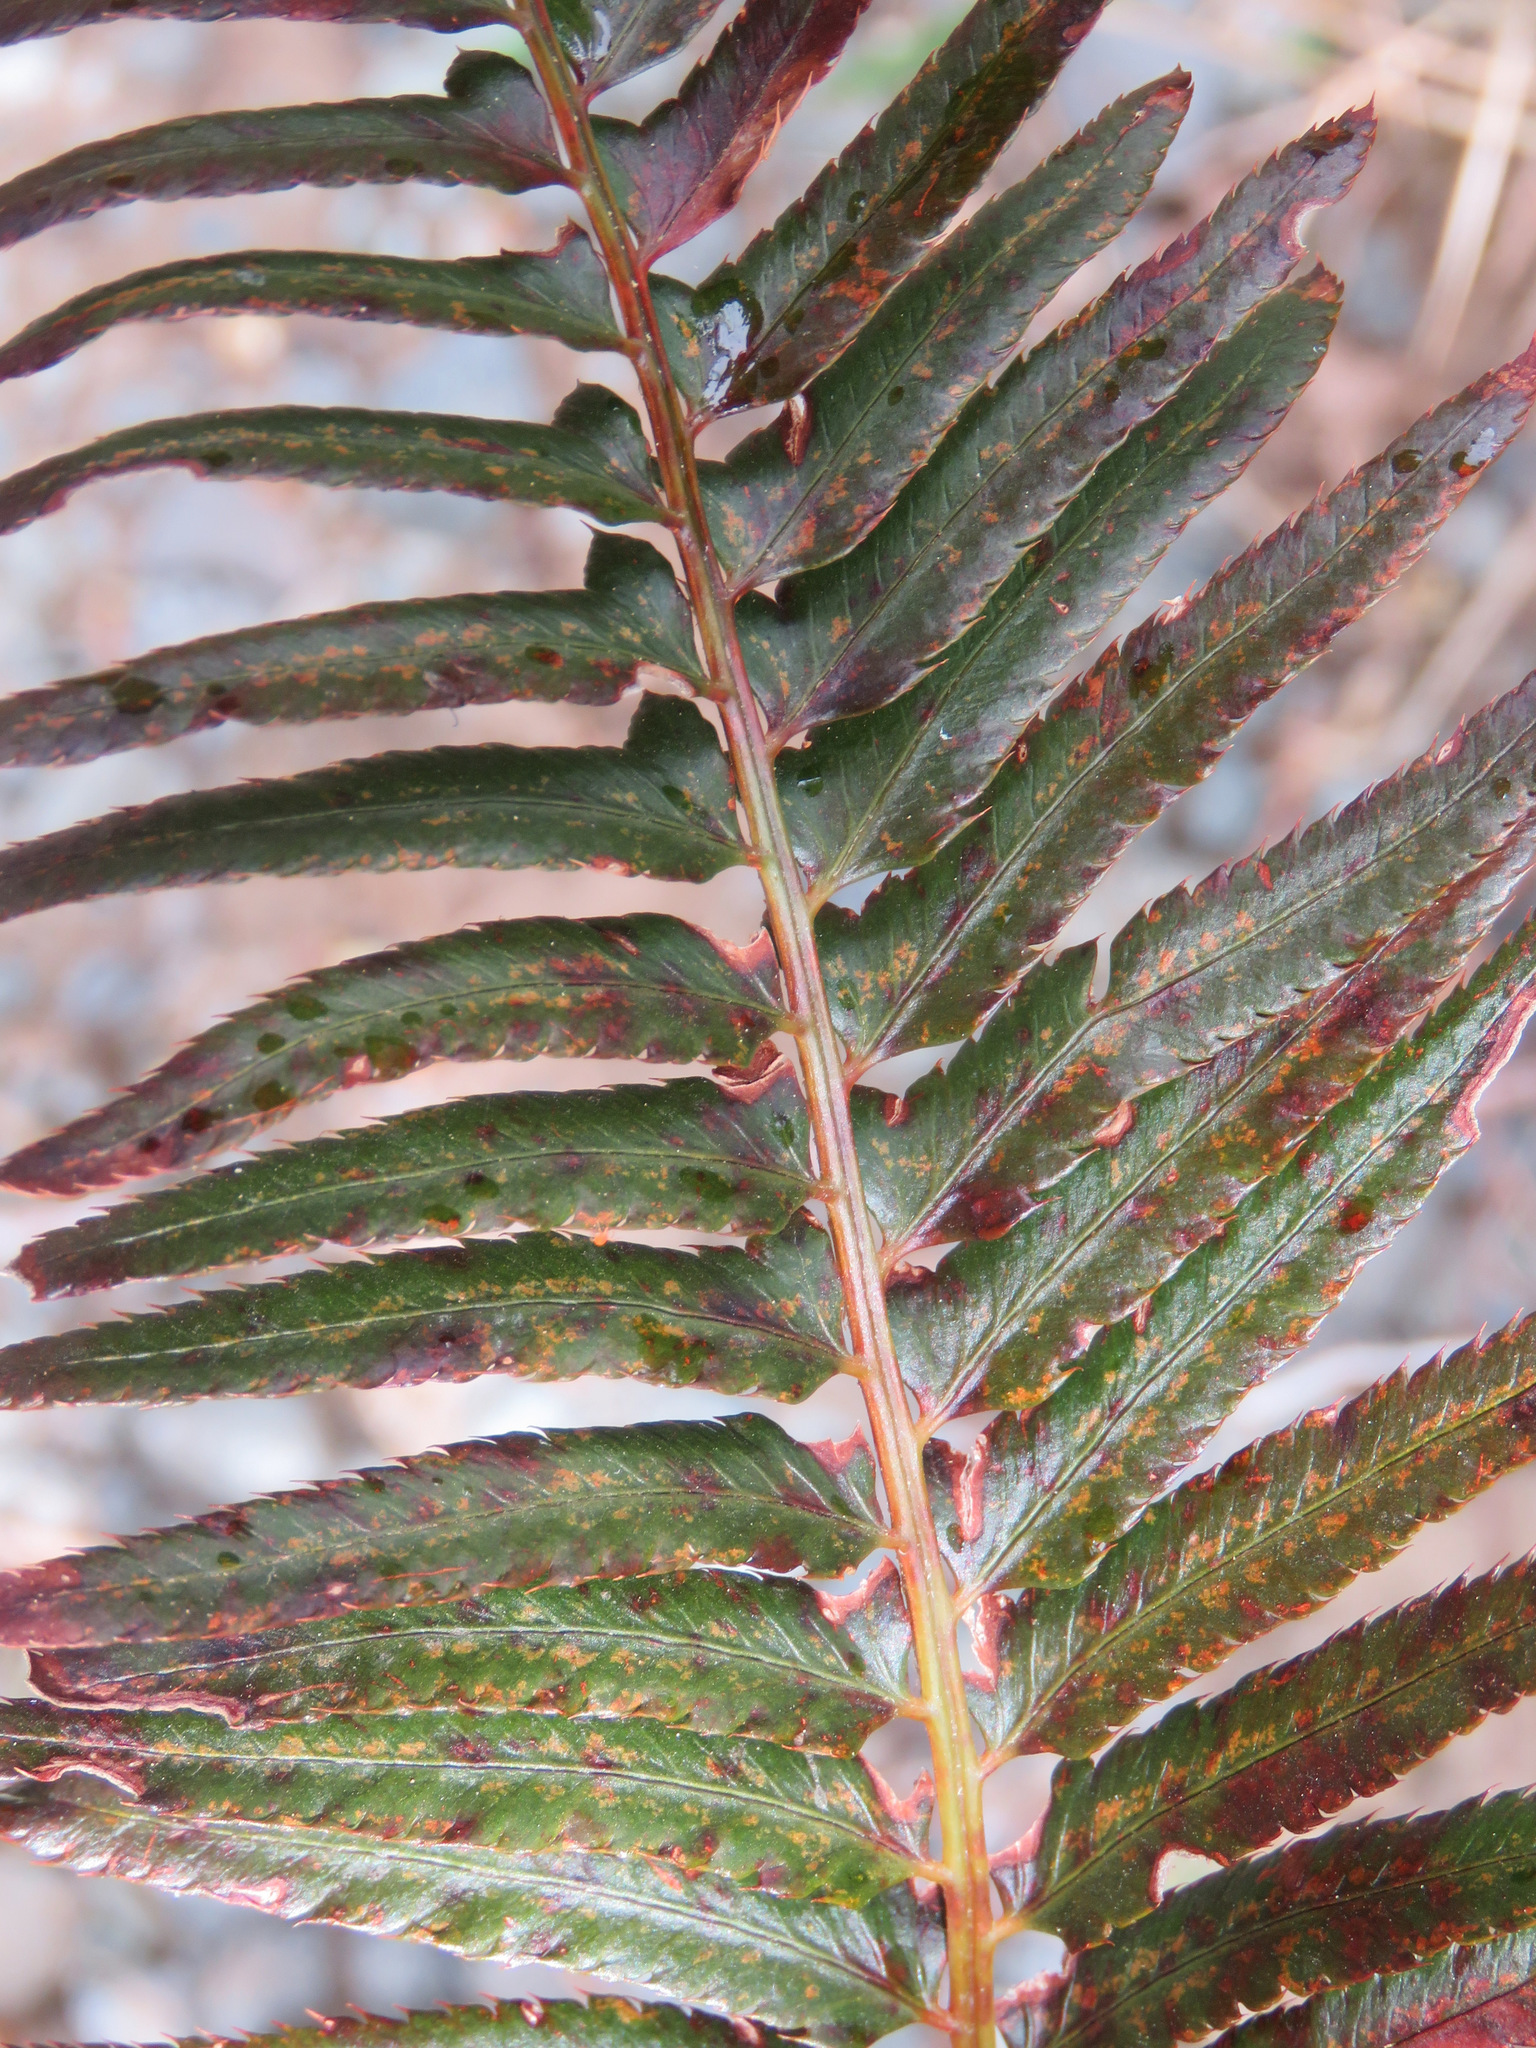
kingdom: Plantae
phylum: Tracheophyta
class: Polypodiopsida
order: Polypodiales
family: Dryopteridaceae
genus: Polystichum
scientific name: Polystichum munitum
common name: Western sword-fern
